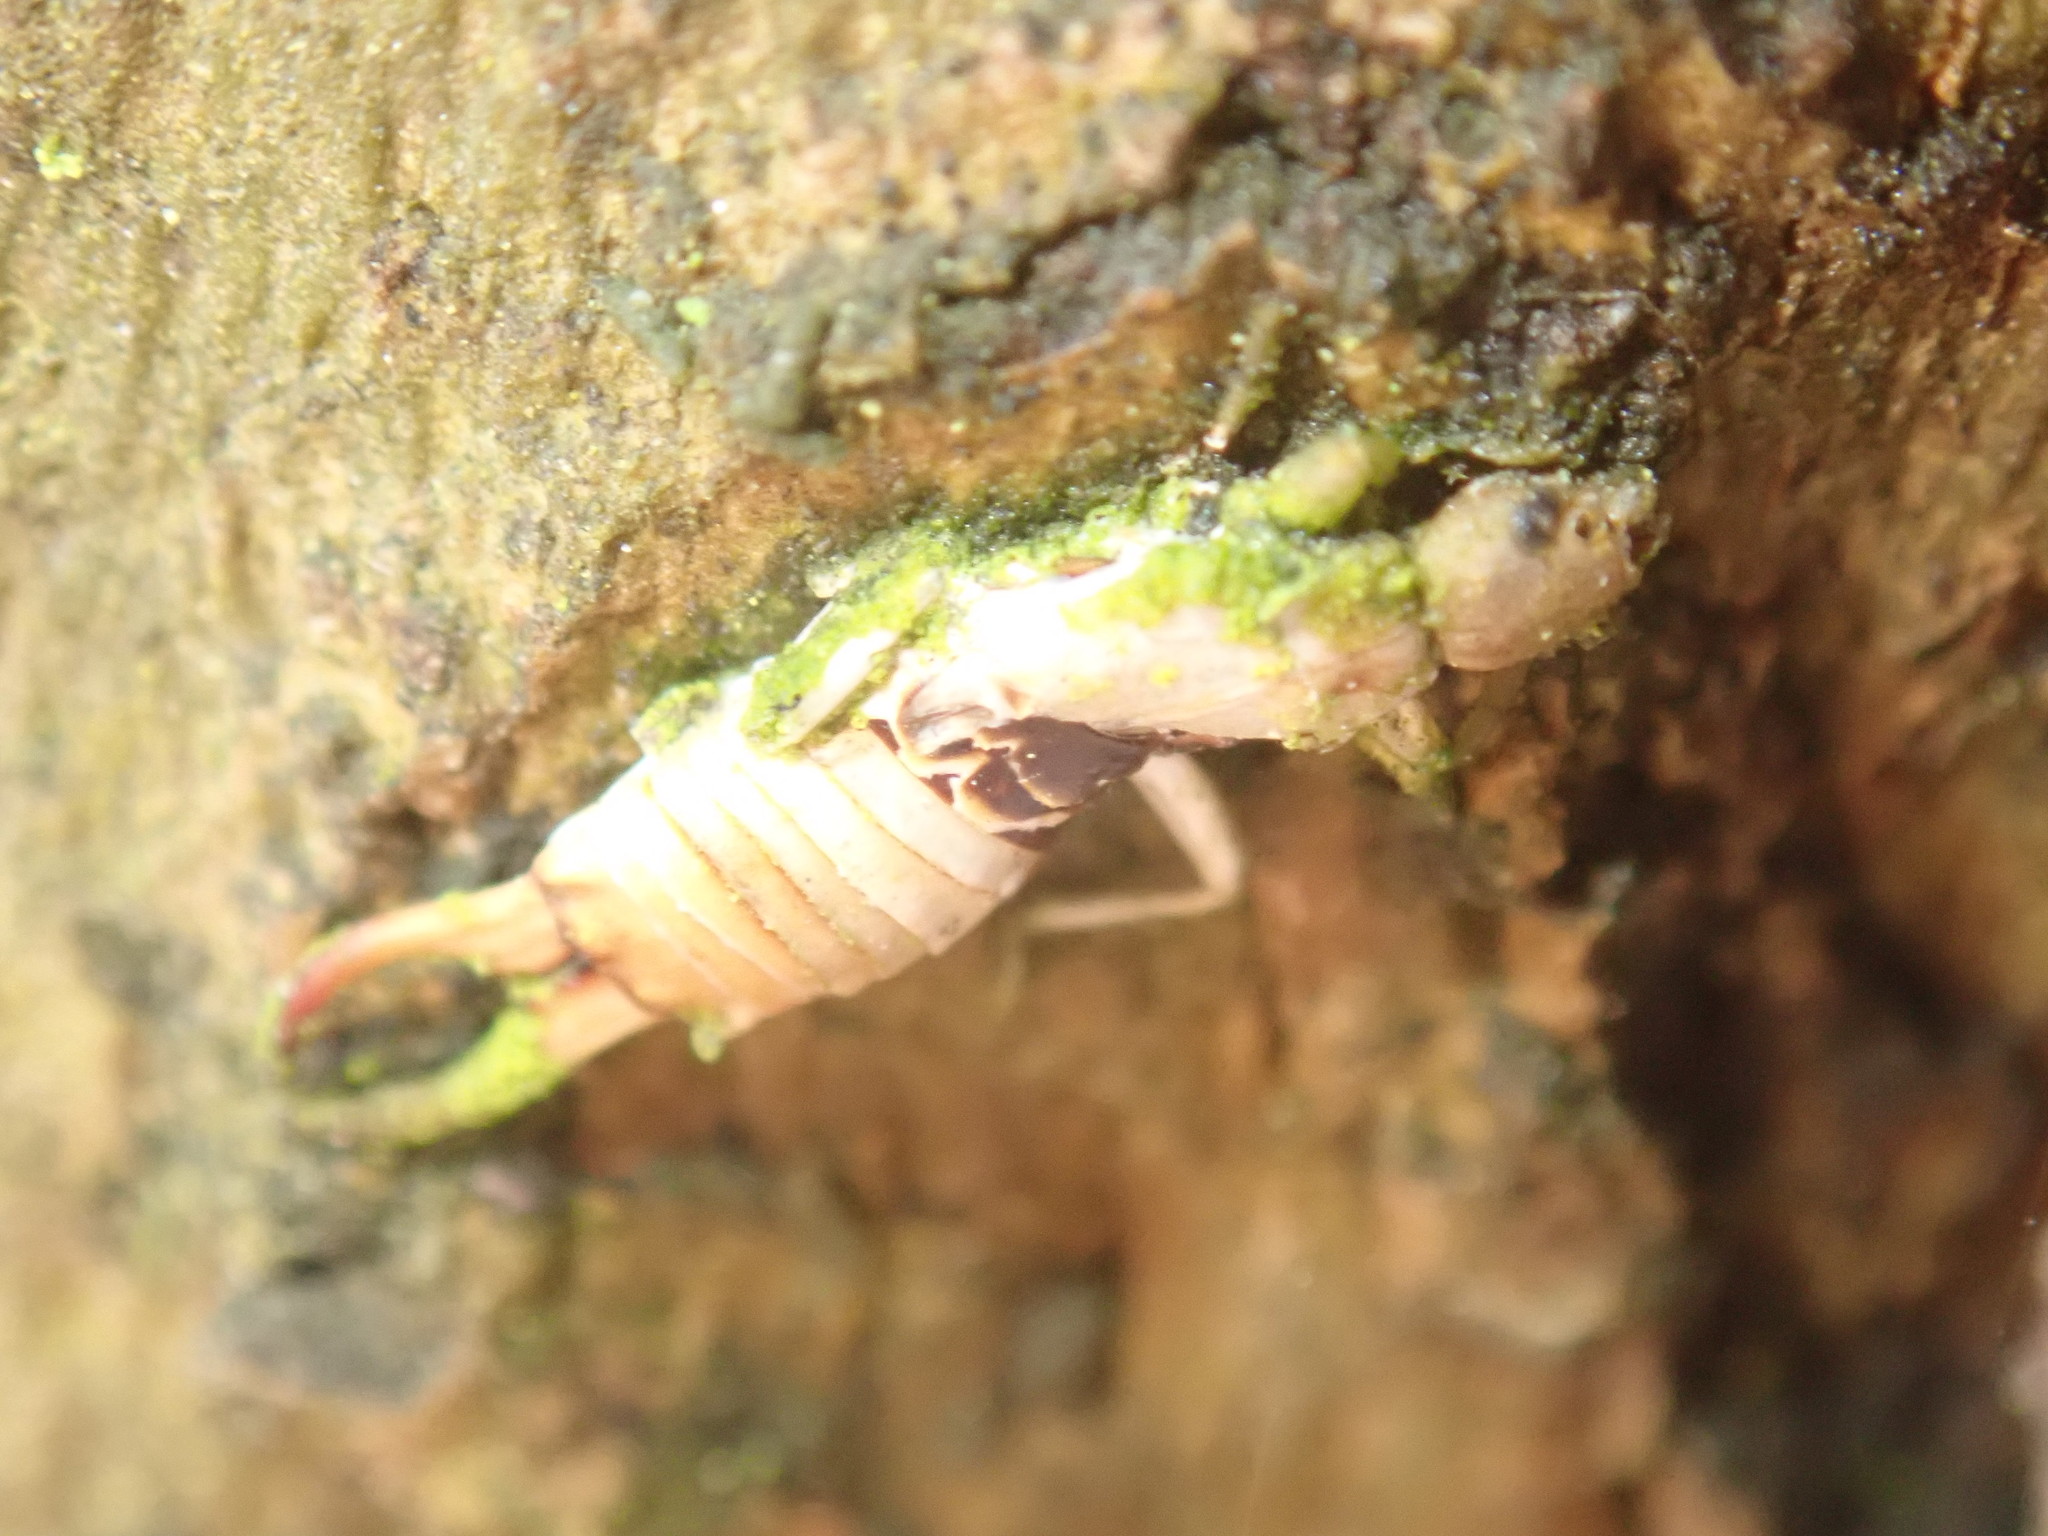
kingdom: Animalia
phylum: Arthropoda
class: Insecta
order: Dermaptera
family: Forficulidae
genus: Forficula
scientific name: Forficula
